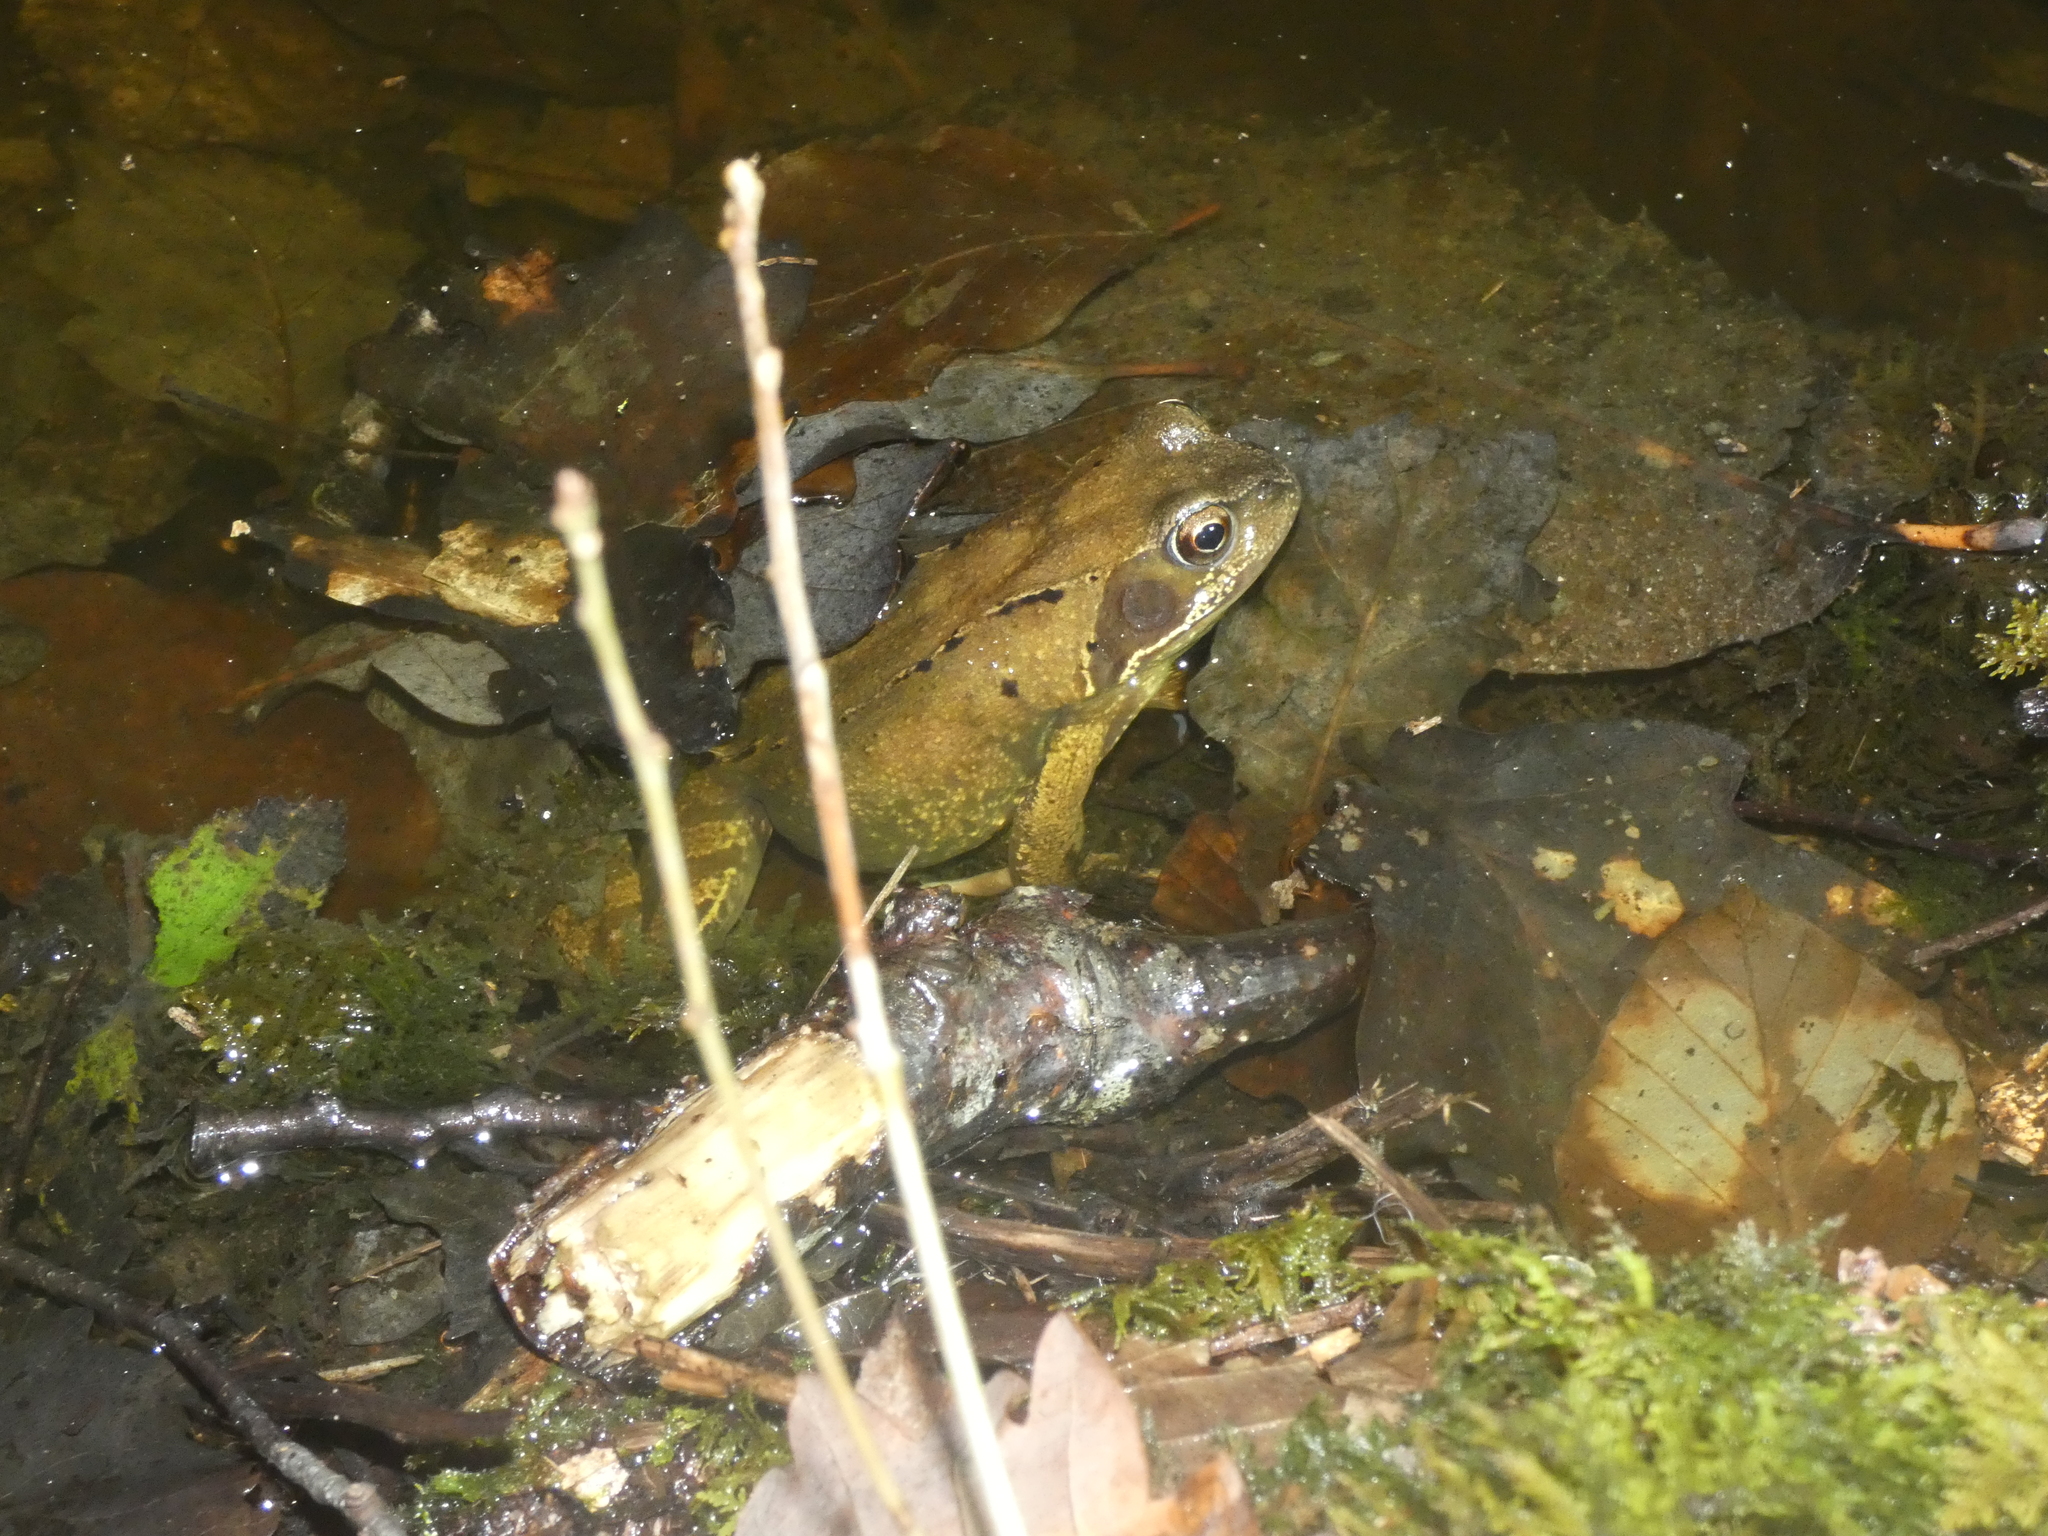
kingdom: Animalia
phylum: Chordata
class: Amphibia
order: Anura
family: Ranidae
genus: Rana
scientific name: Rana temporaria
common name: Common frog
